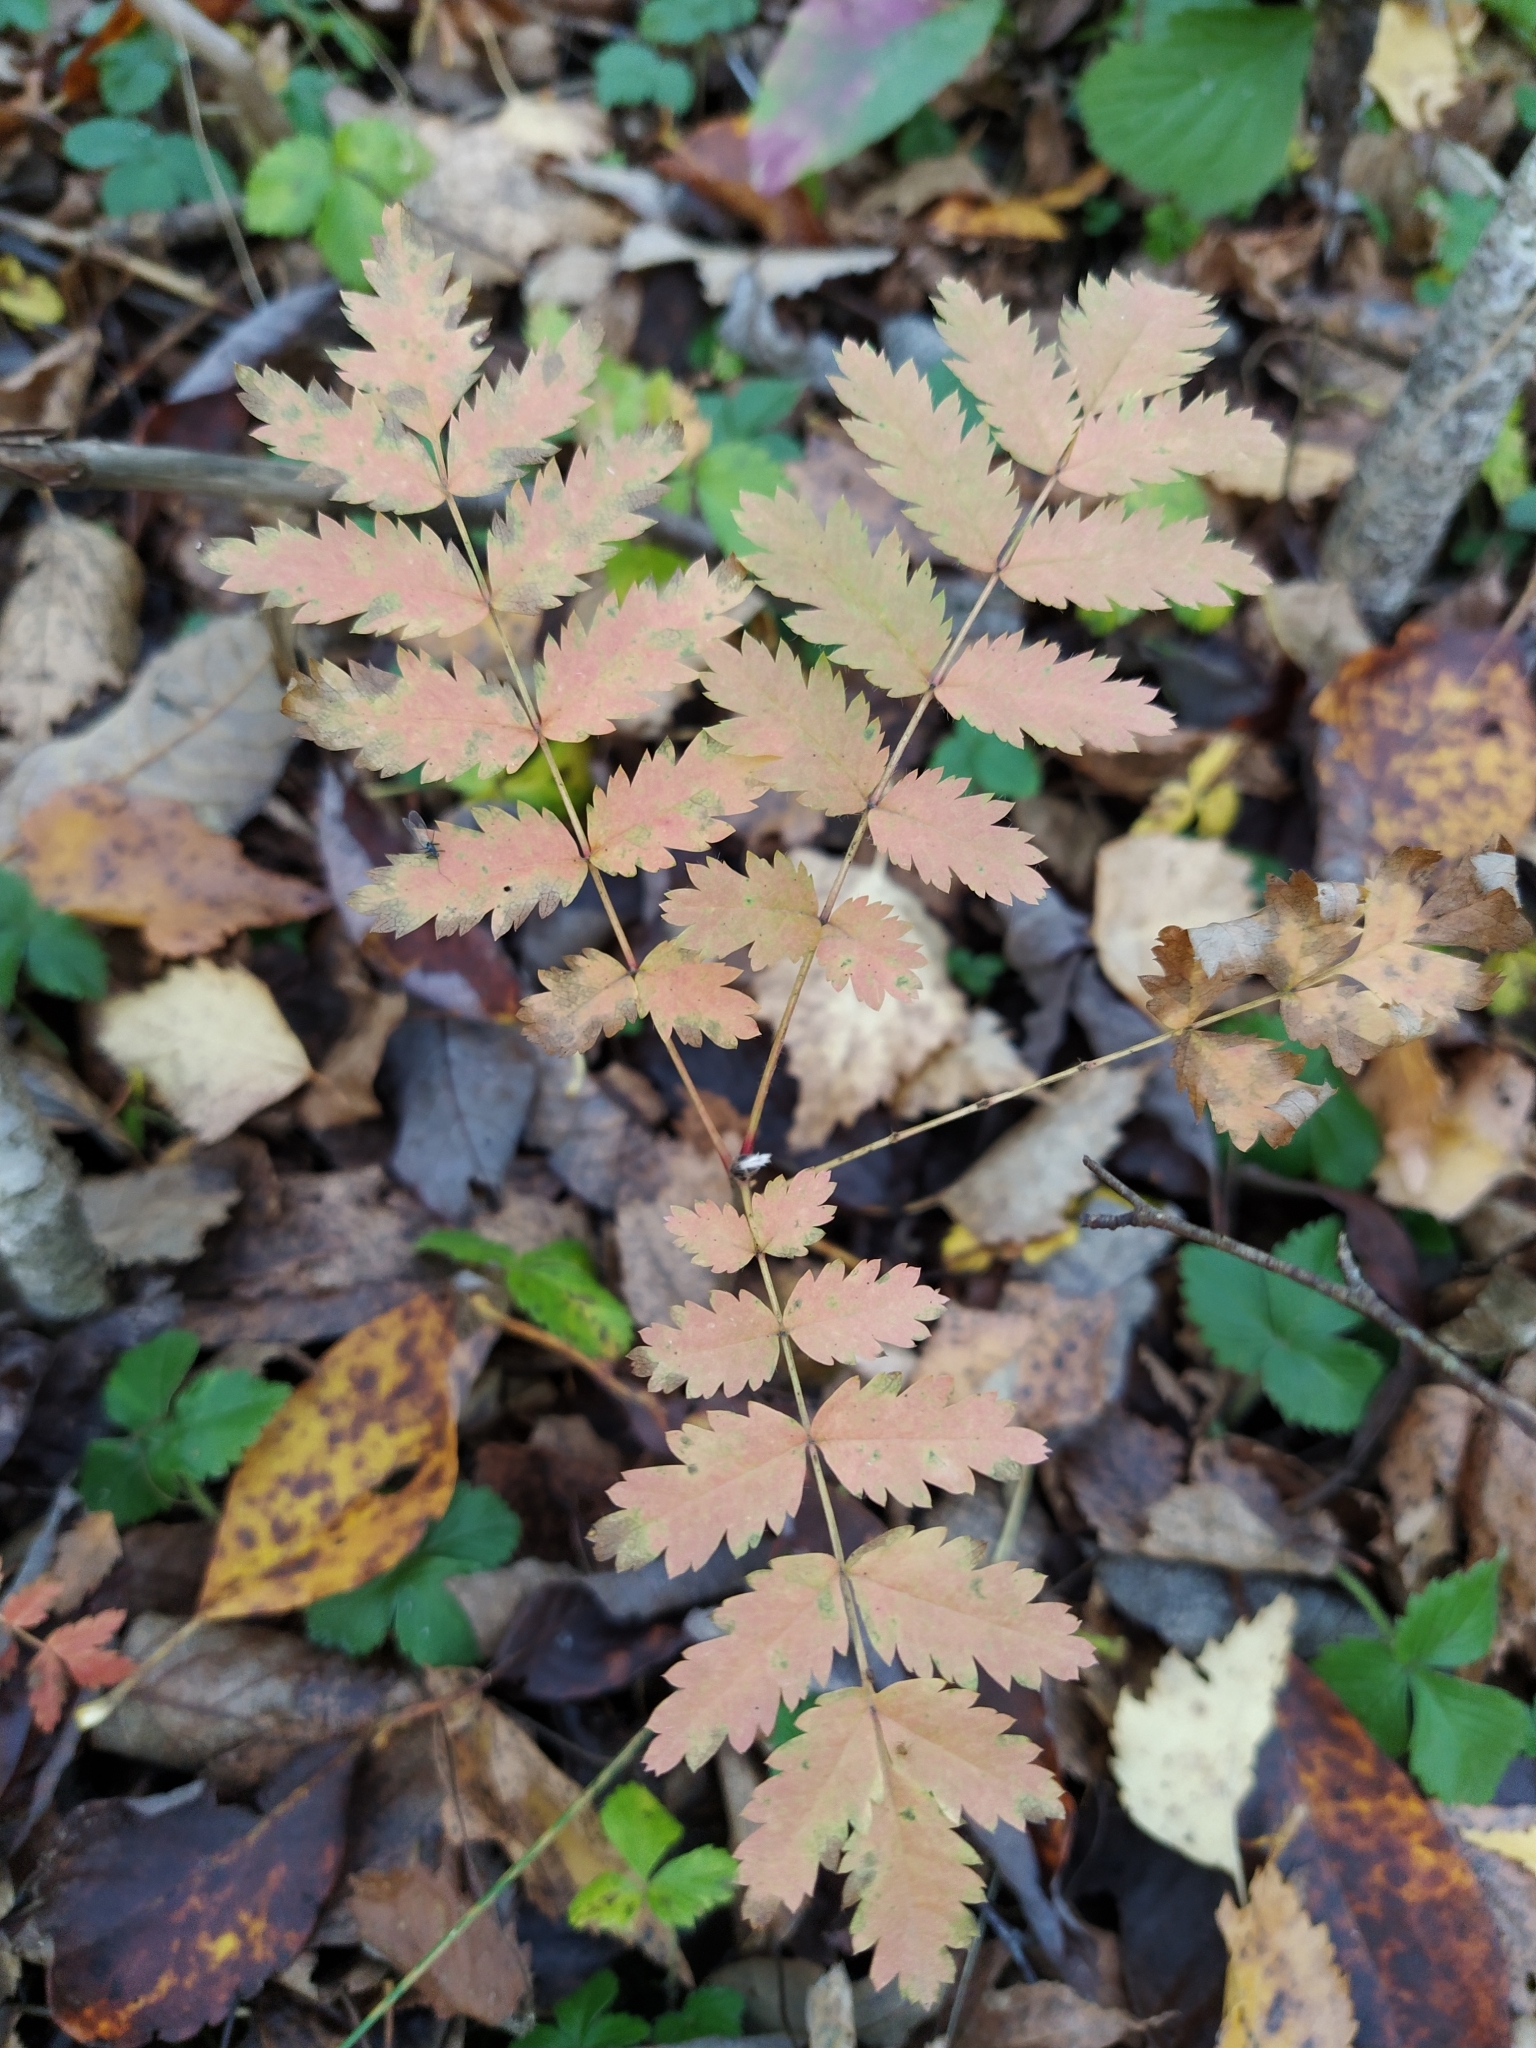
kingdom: Plantae
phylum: Tracheophyta
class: Magnoliopsida
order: Rosales
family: Rosaceae
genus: Sorbus
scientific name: Sorbus aucuparia
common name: Rowan
